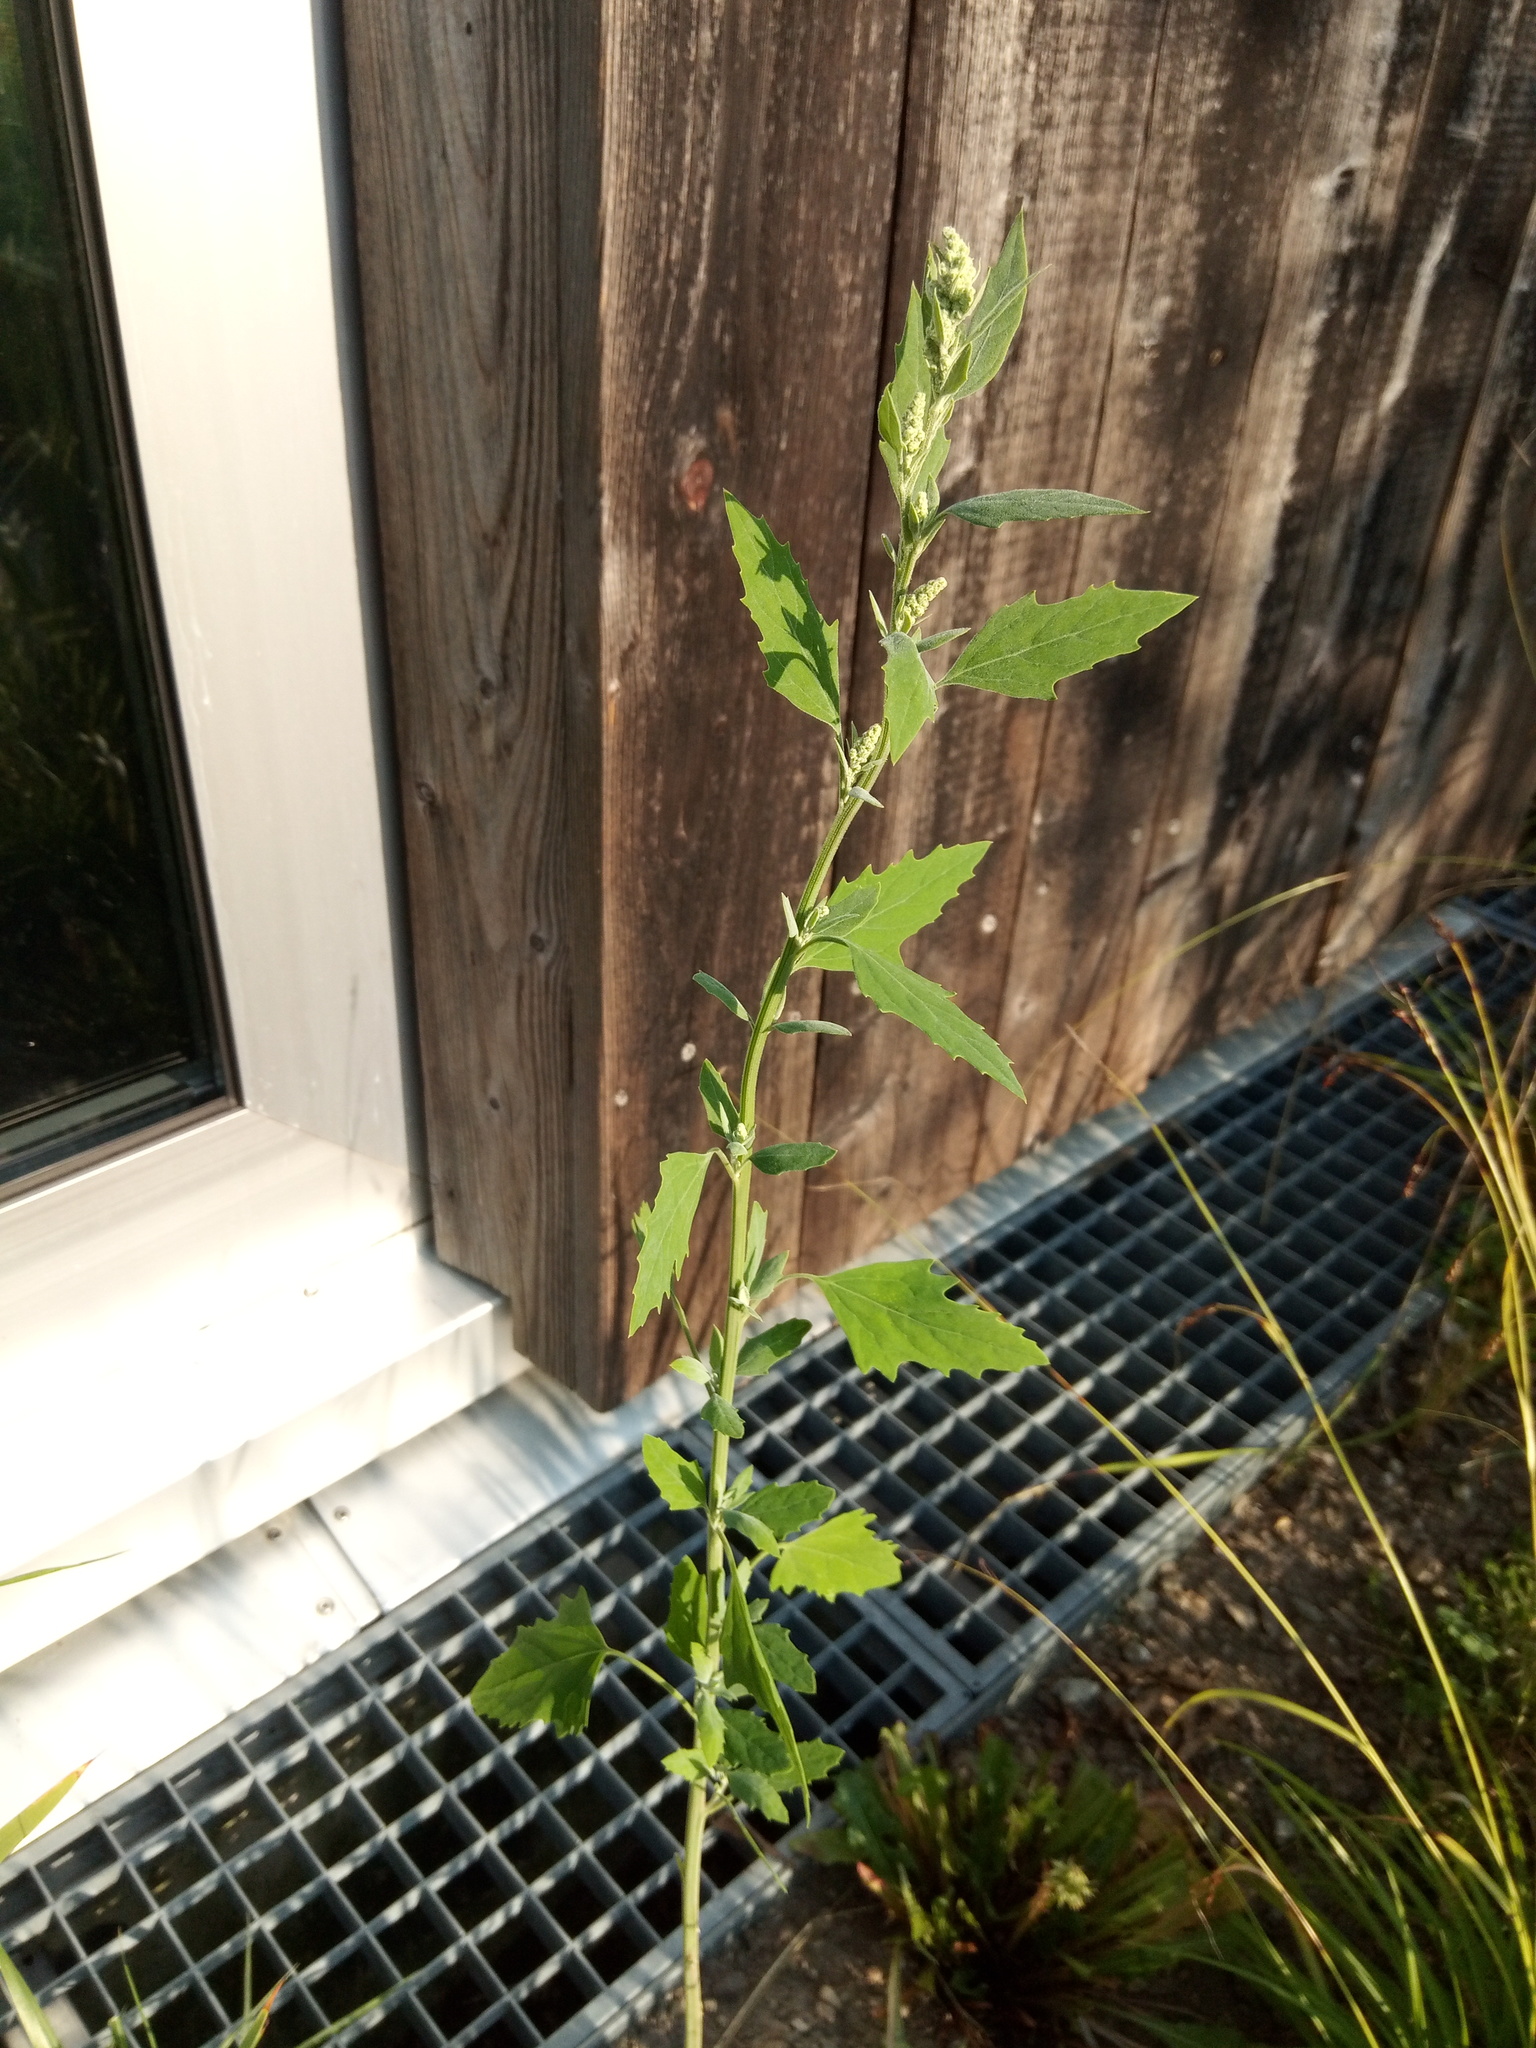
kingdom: Plantae
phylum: Tracheophyta
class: Magnoliopsida
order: Caryophyllales
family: Amaranthaceae
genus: Chenopodium
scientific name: Chenopodium album
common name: Fat-hen
